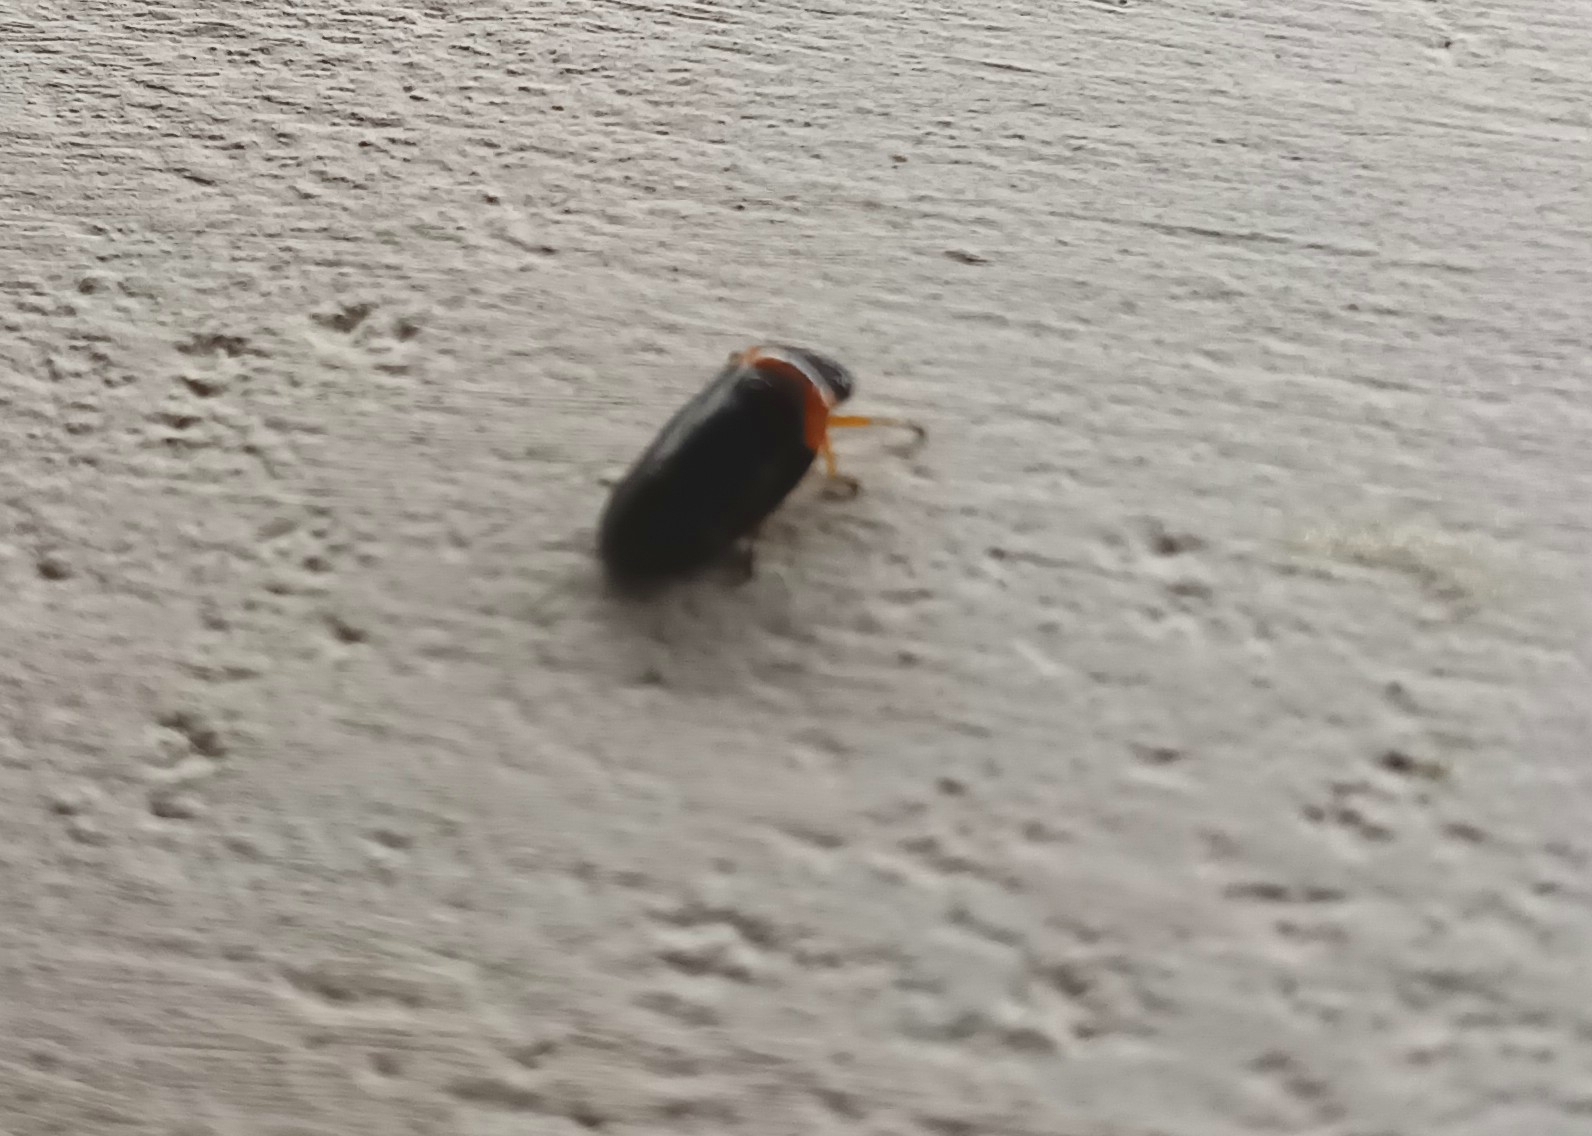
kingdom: Animalia
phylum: Arthropoda
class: Insecta
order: Hemiptera
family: Cercopidae
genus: Phymatostetha
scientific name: Phymatostetha deschampsi
